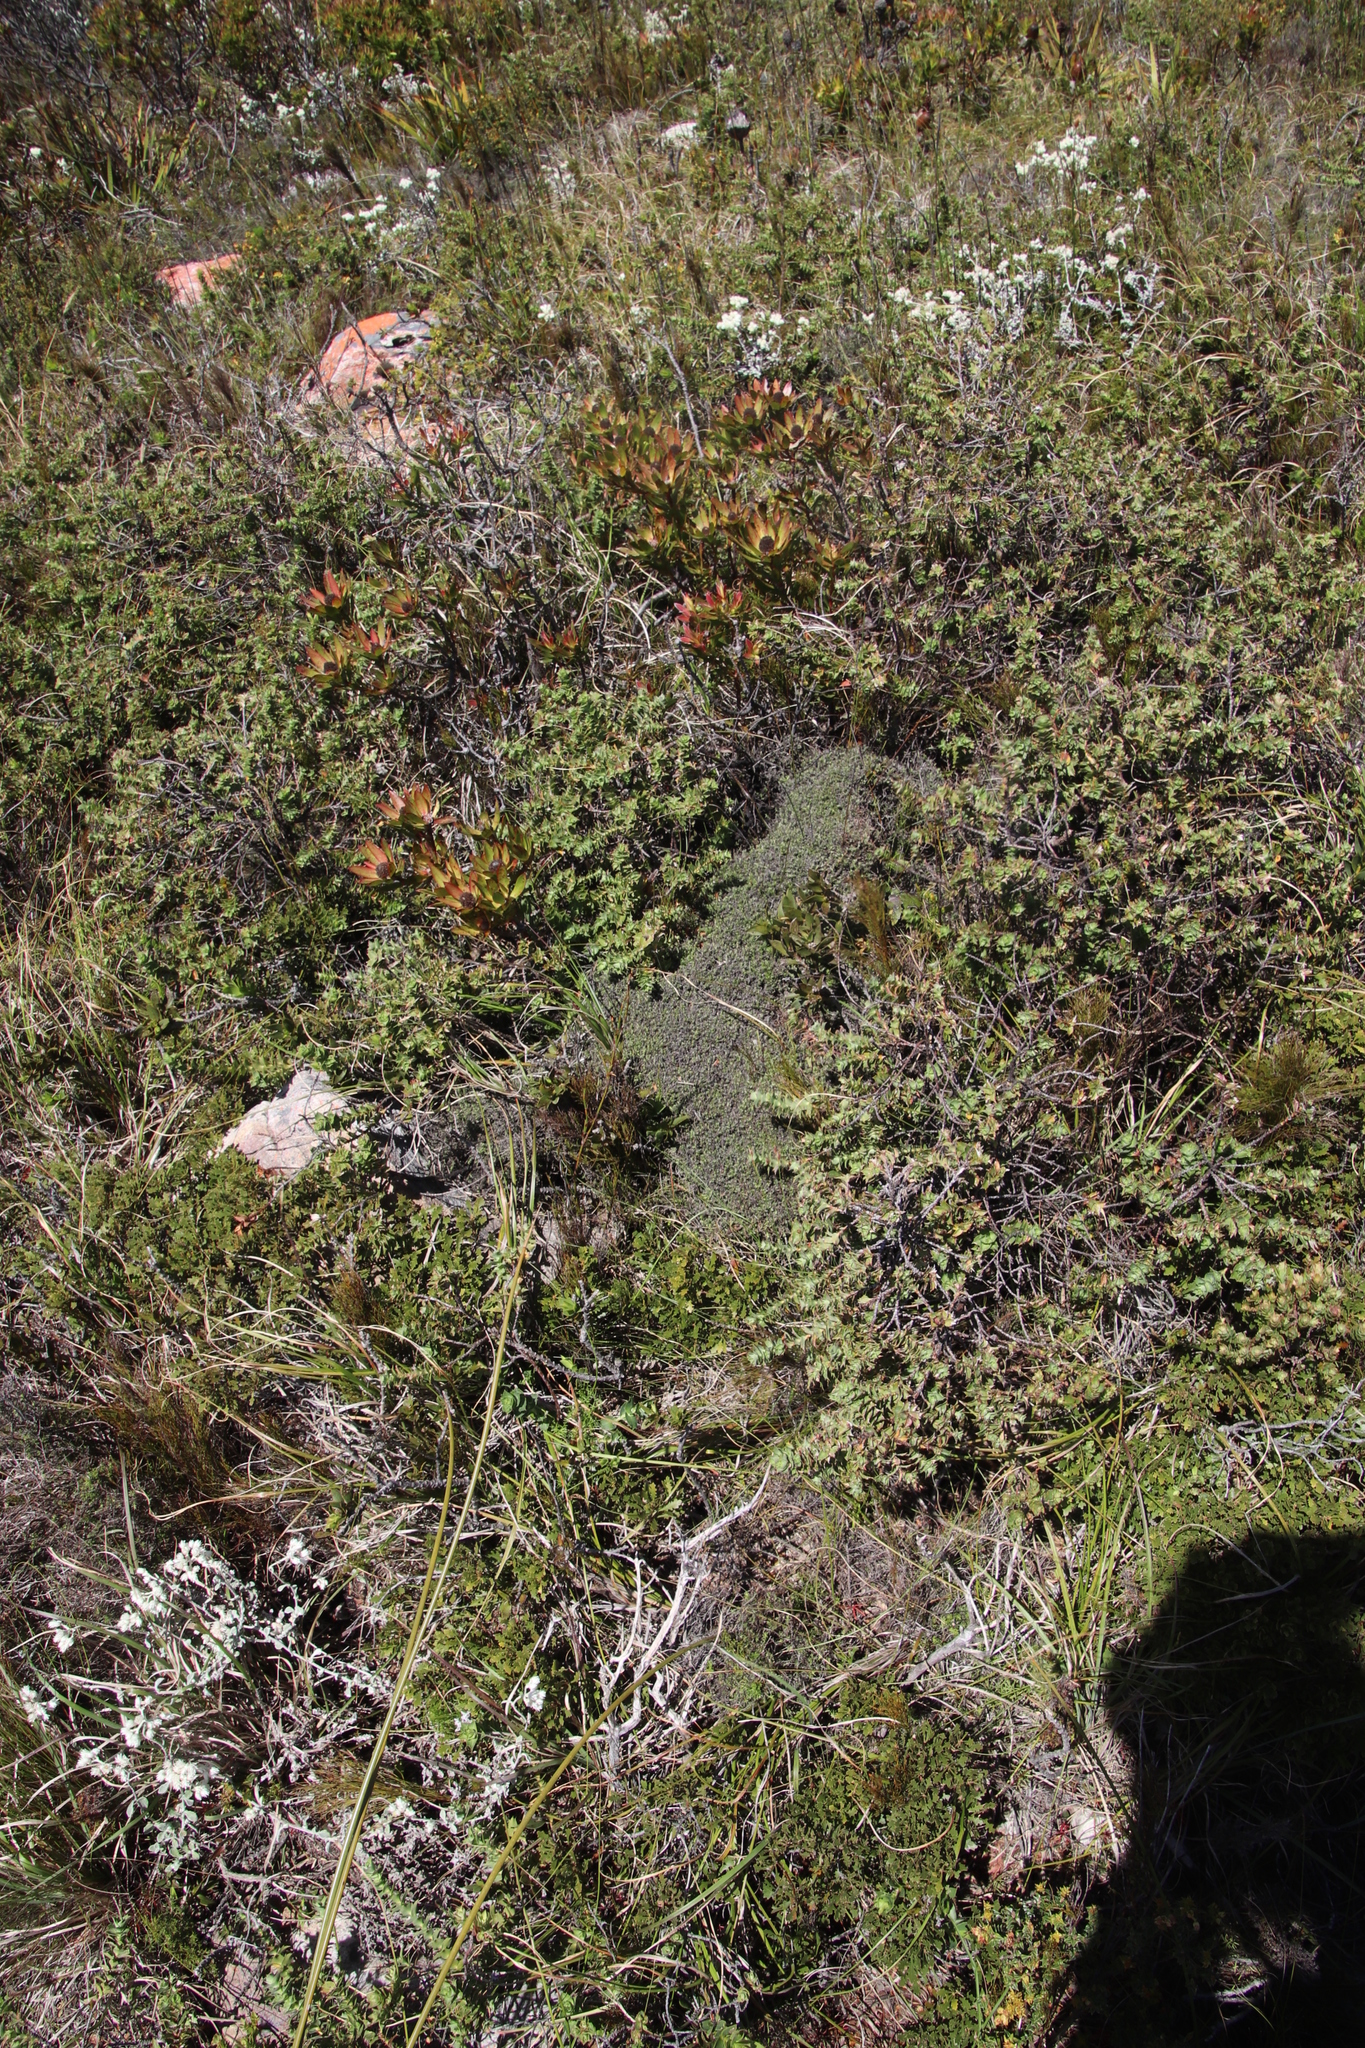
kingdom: Plantae
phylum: Tracheophyta
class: Magnoliopsida
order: Rosales
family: Rosaceae
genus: Cliffortia
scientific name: Cliffortia schlechteri
